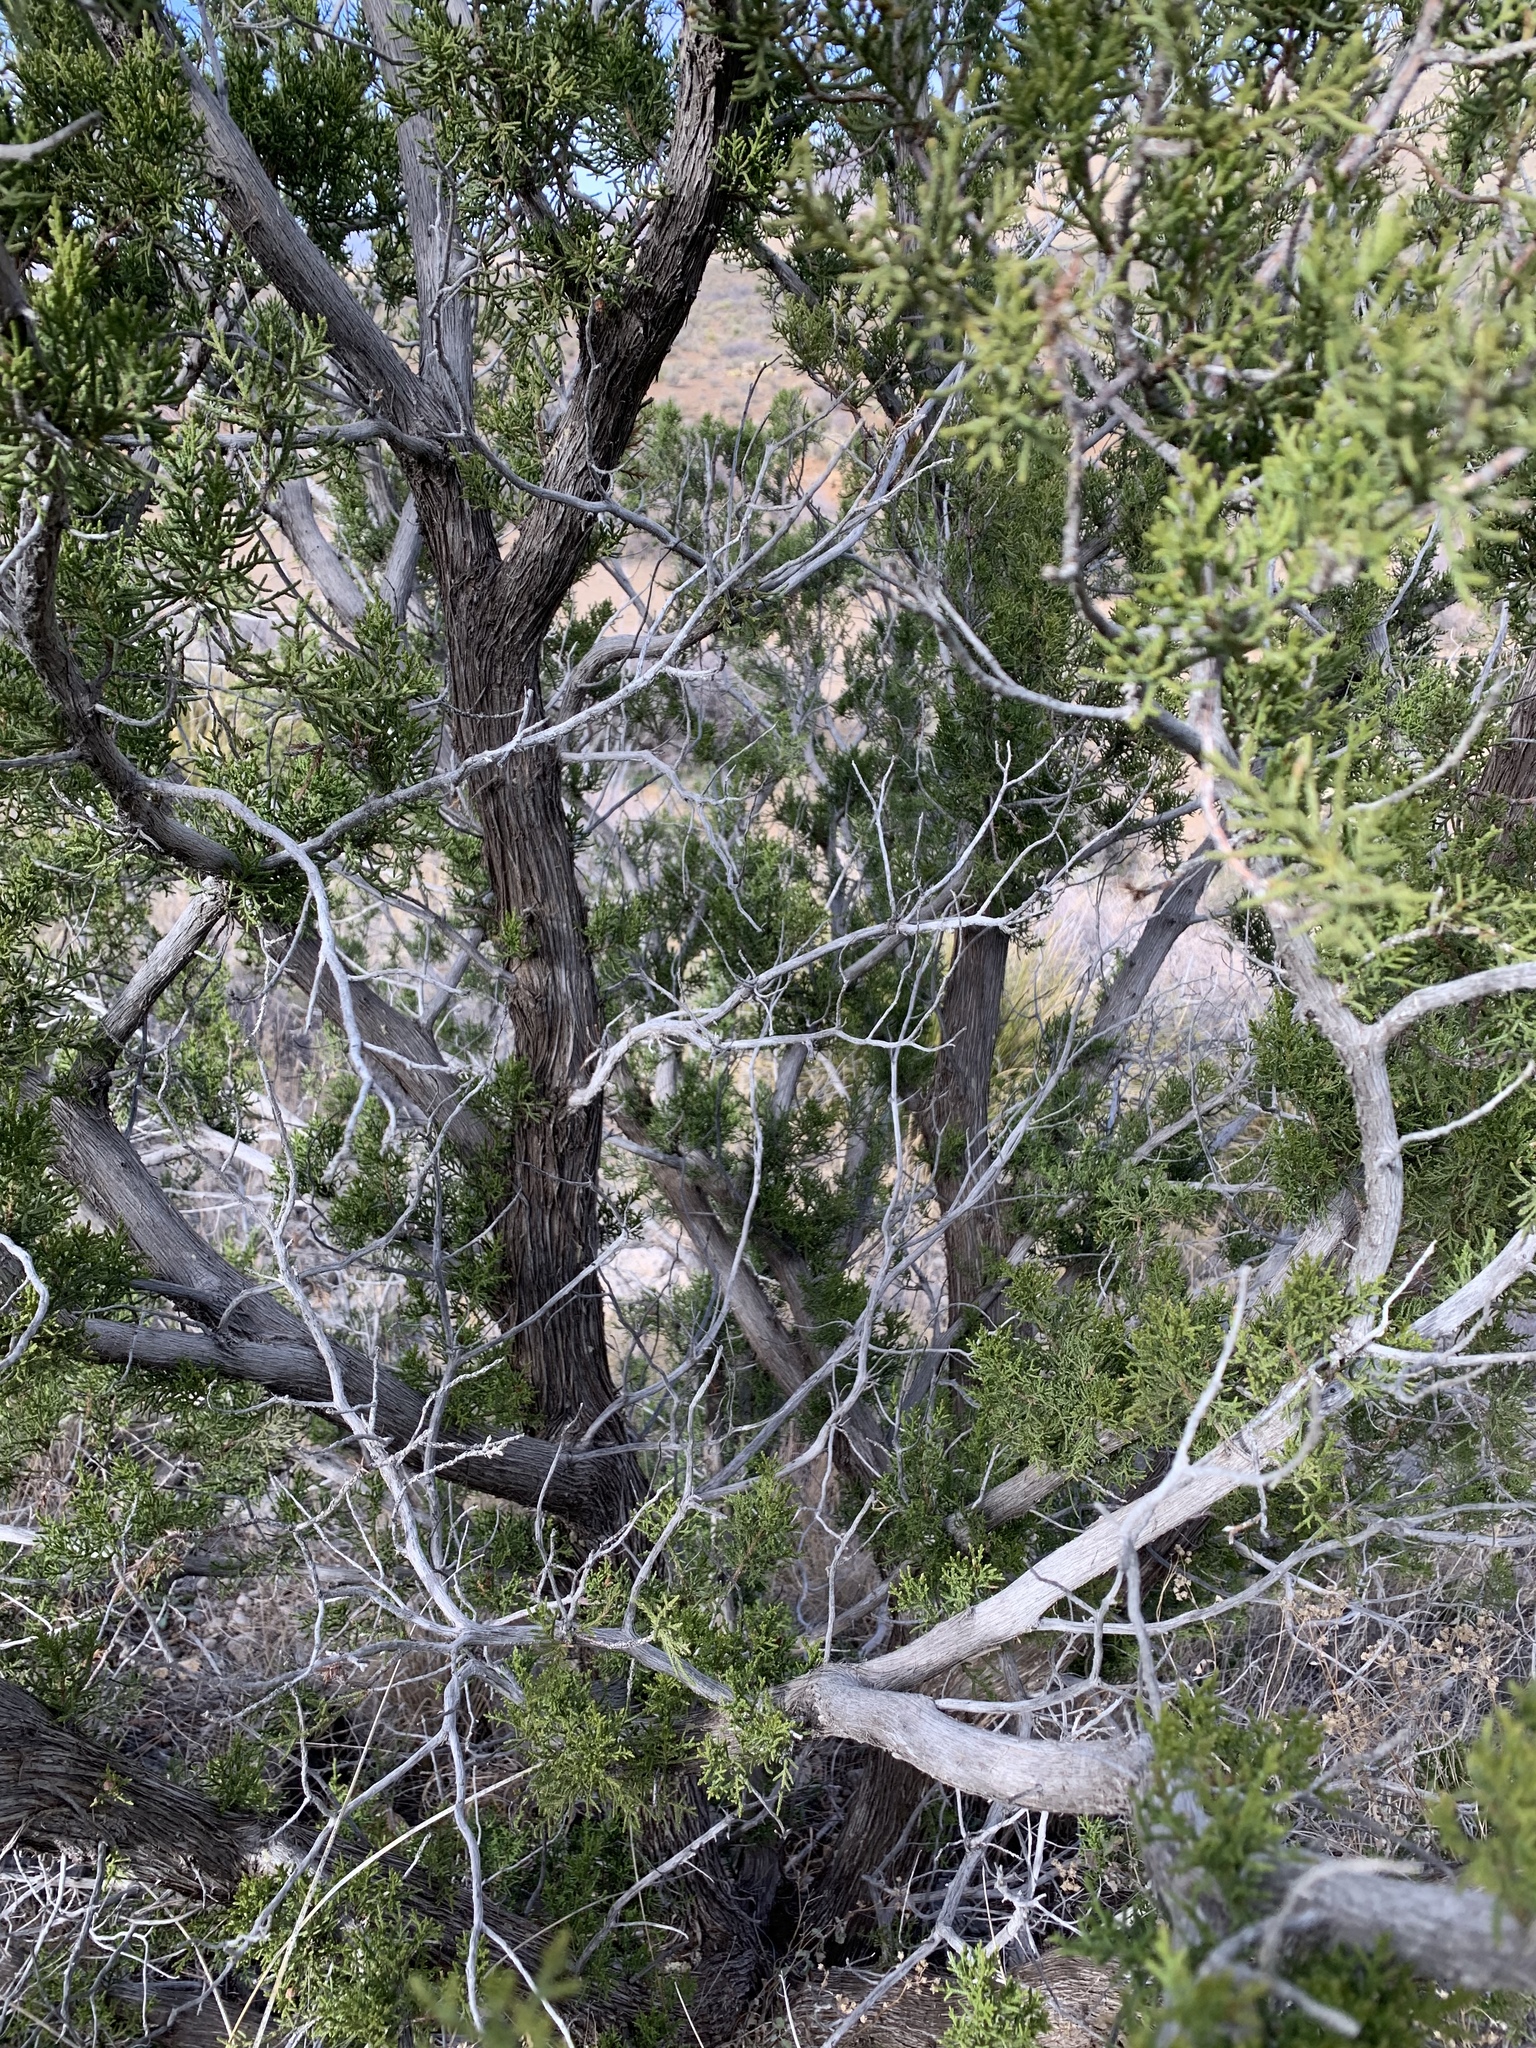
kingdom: Plantae
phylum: Tracheophyta
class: Pinopsida
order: Pinales
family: Cupressaceae
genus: Juniperus
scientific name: Juniperus arizonica
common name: Arizona juniper
